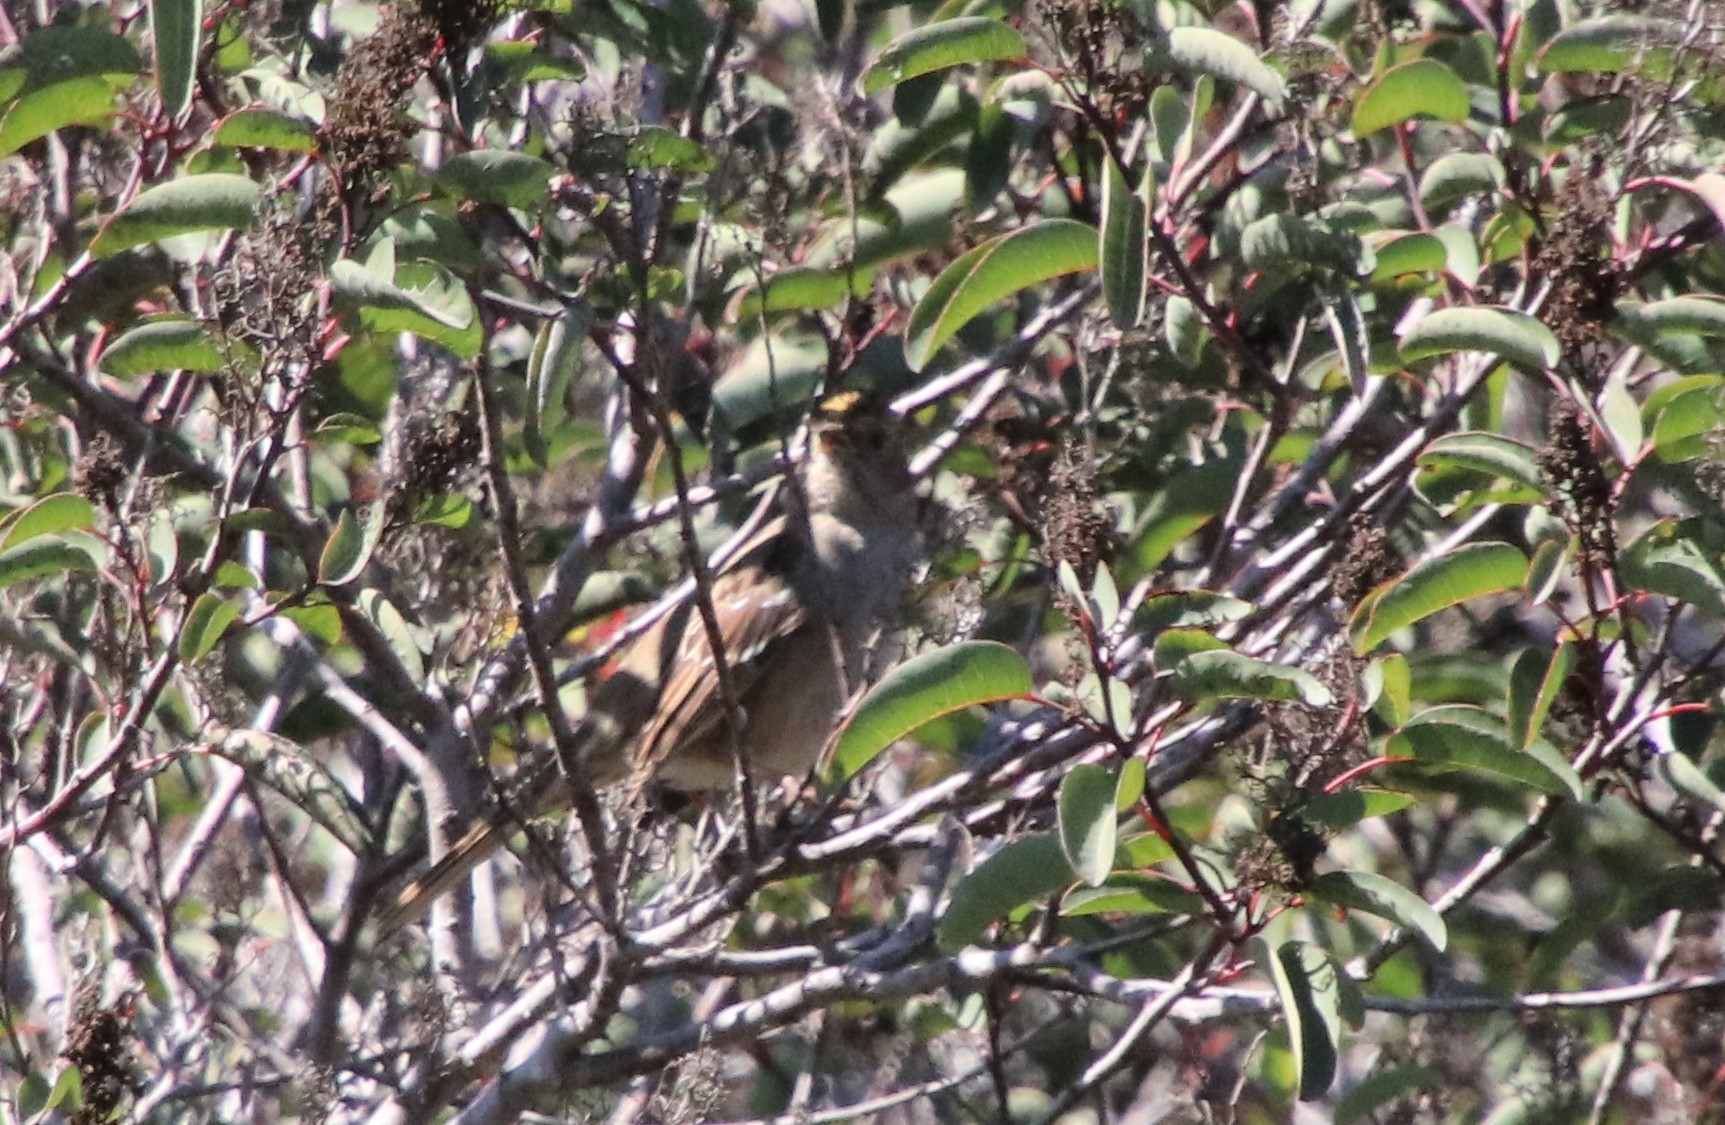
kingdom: Animalia
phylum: Chordata
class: Aves
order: Passeriformes
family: Passerellidae
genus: Zonotrichia
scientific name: Zonotrichia atricapilla
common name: Golden-crowned sparrow
